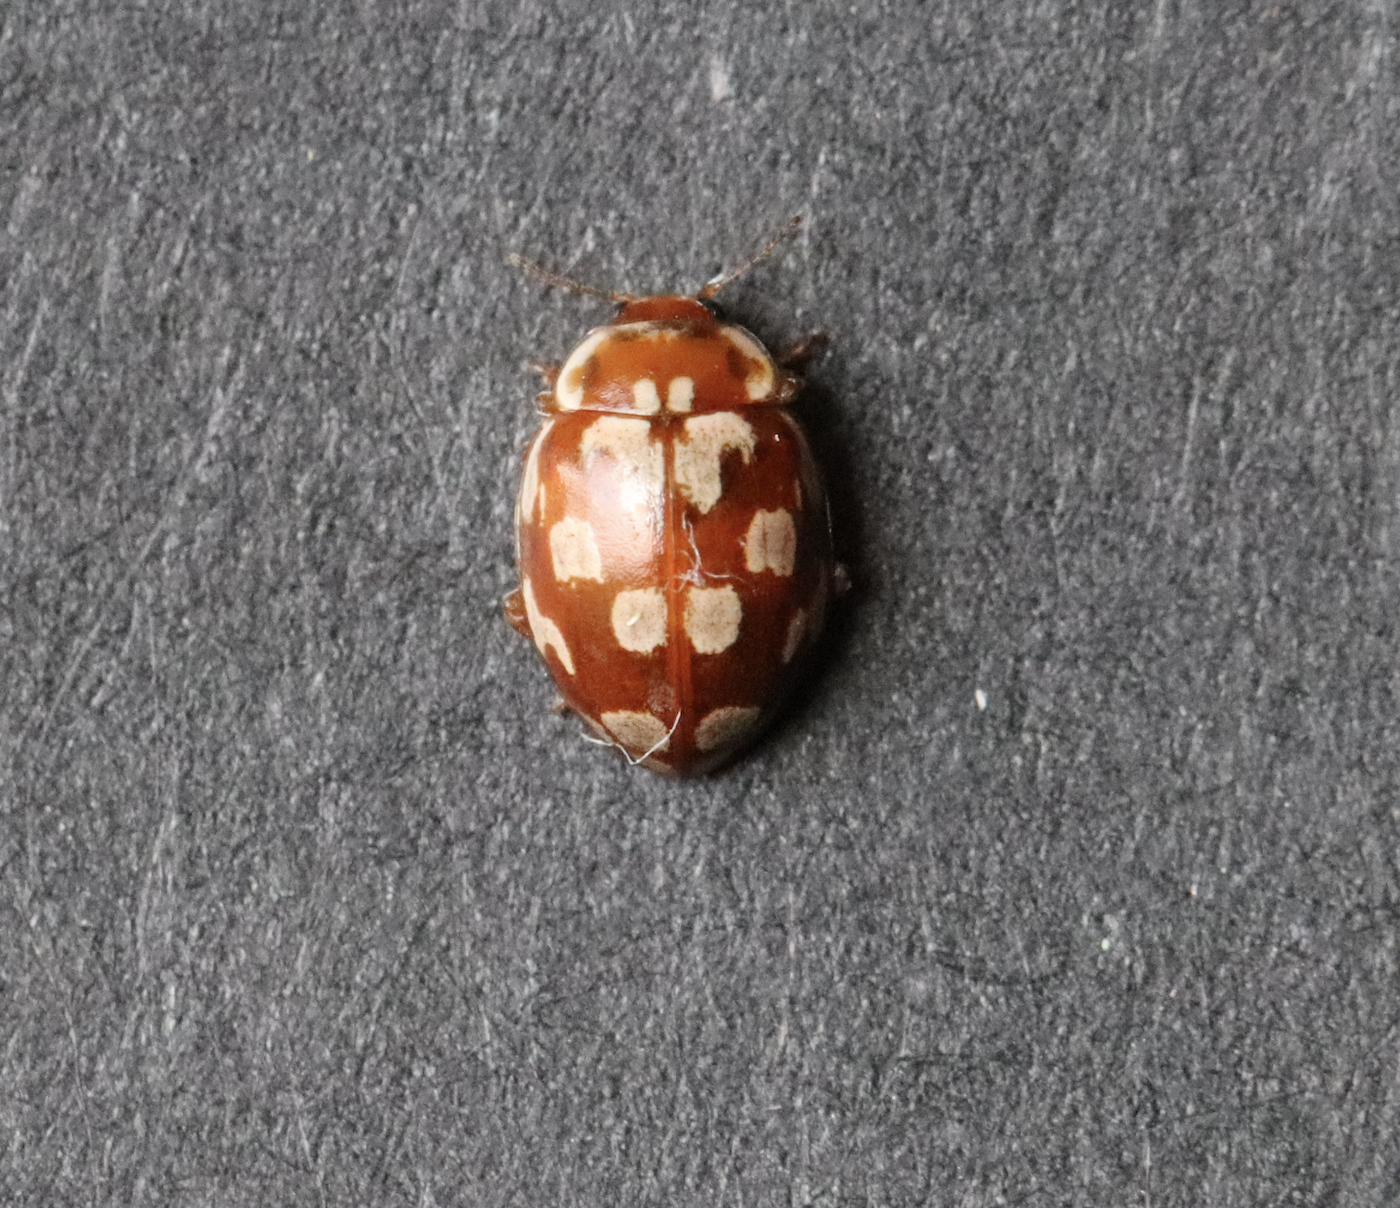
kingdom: Animalia
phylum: Arthropoda
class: Insecta
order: Coleoptera
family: Coccinellidae
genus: Myrrha
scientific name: Myrrha octodecimguttata
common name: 18-spot ladybird
